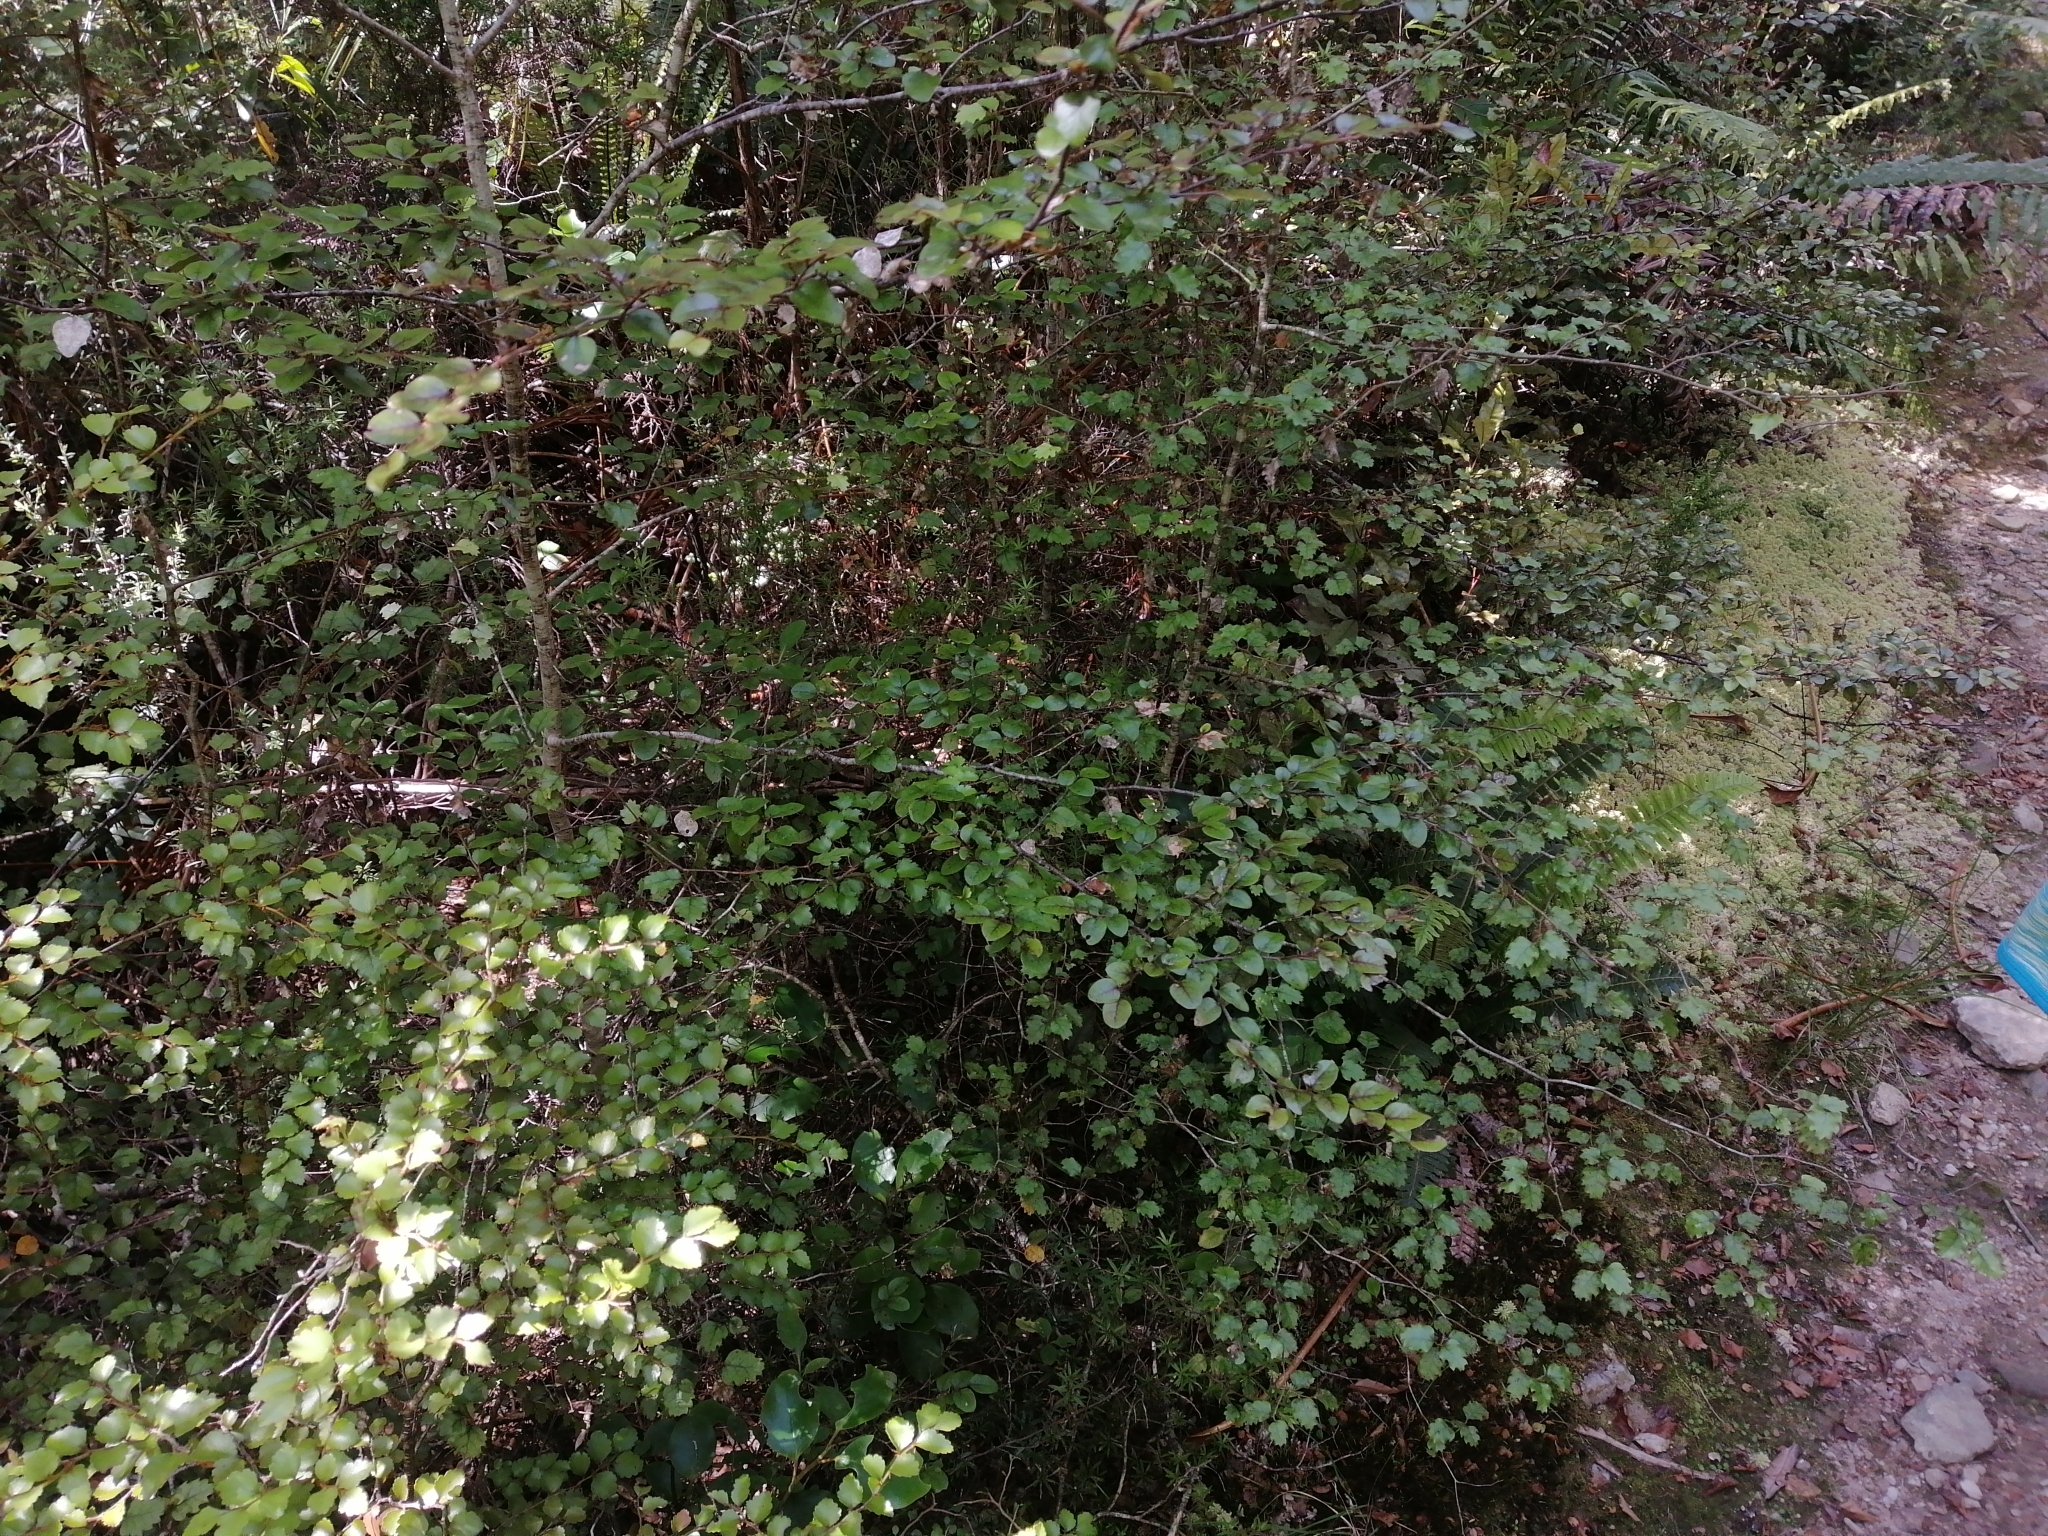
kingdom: Plantae
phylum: Tracheophyta
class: Magnoliopsida
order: Fagales
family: Nothofagaceae
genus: Nothofagus
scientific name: Nothofagus fusca
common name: Red beech
